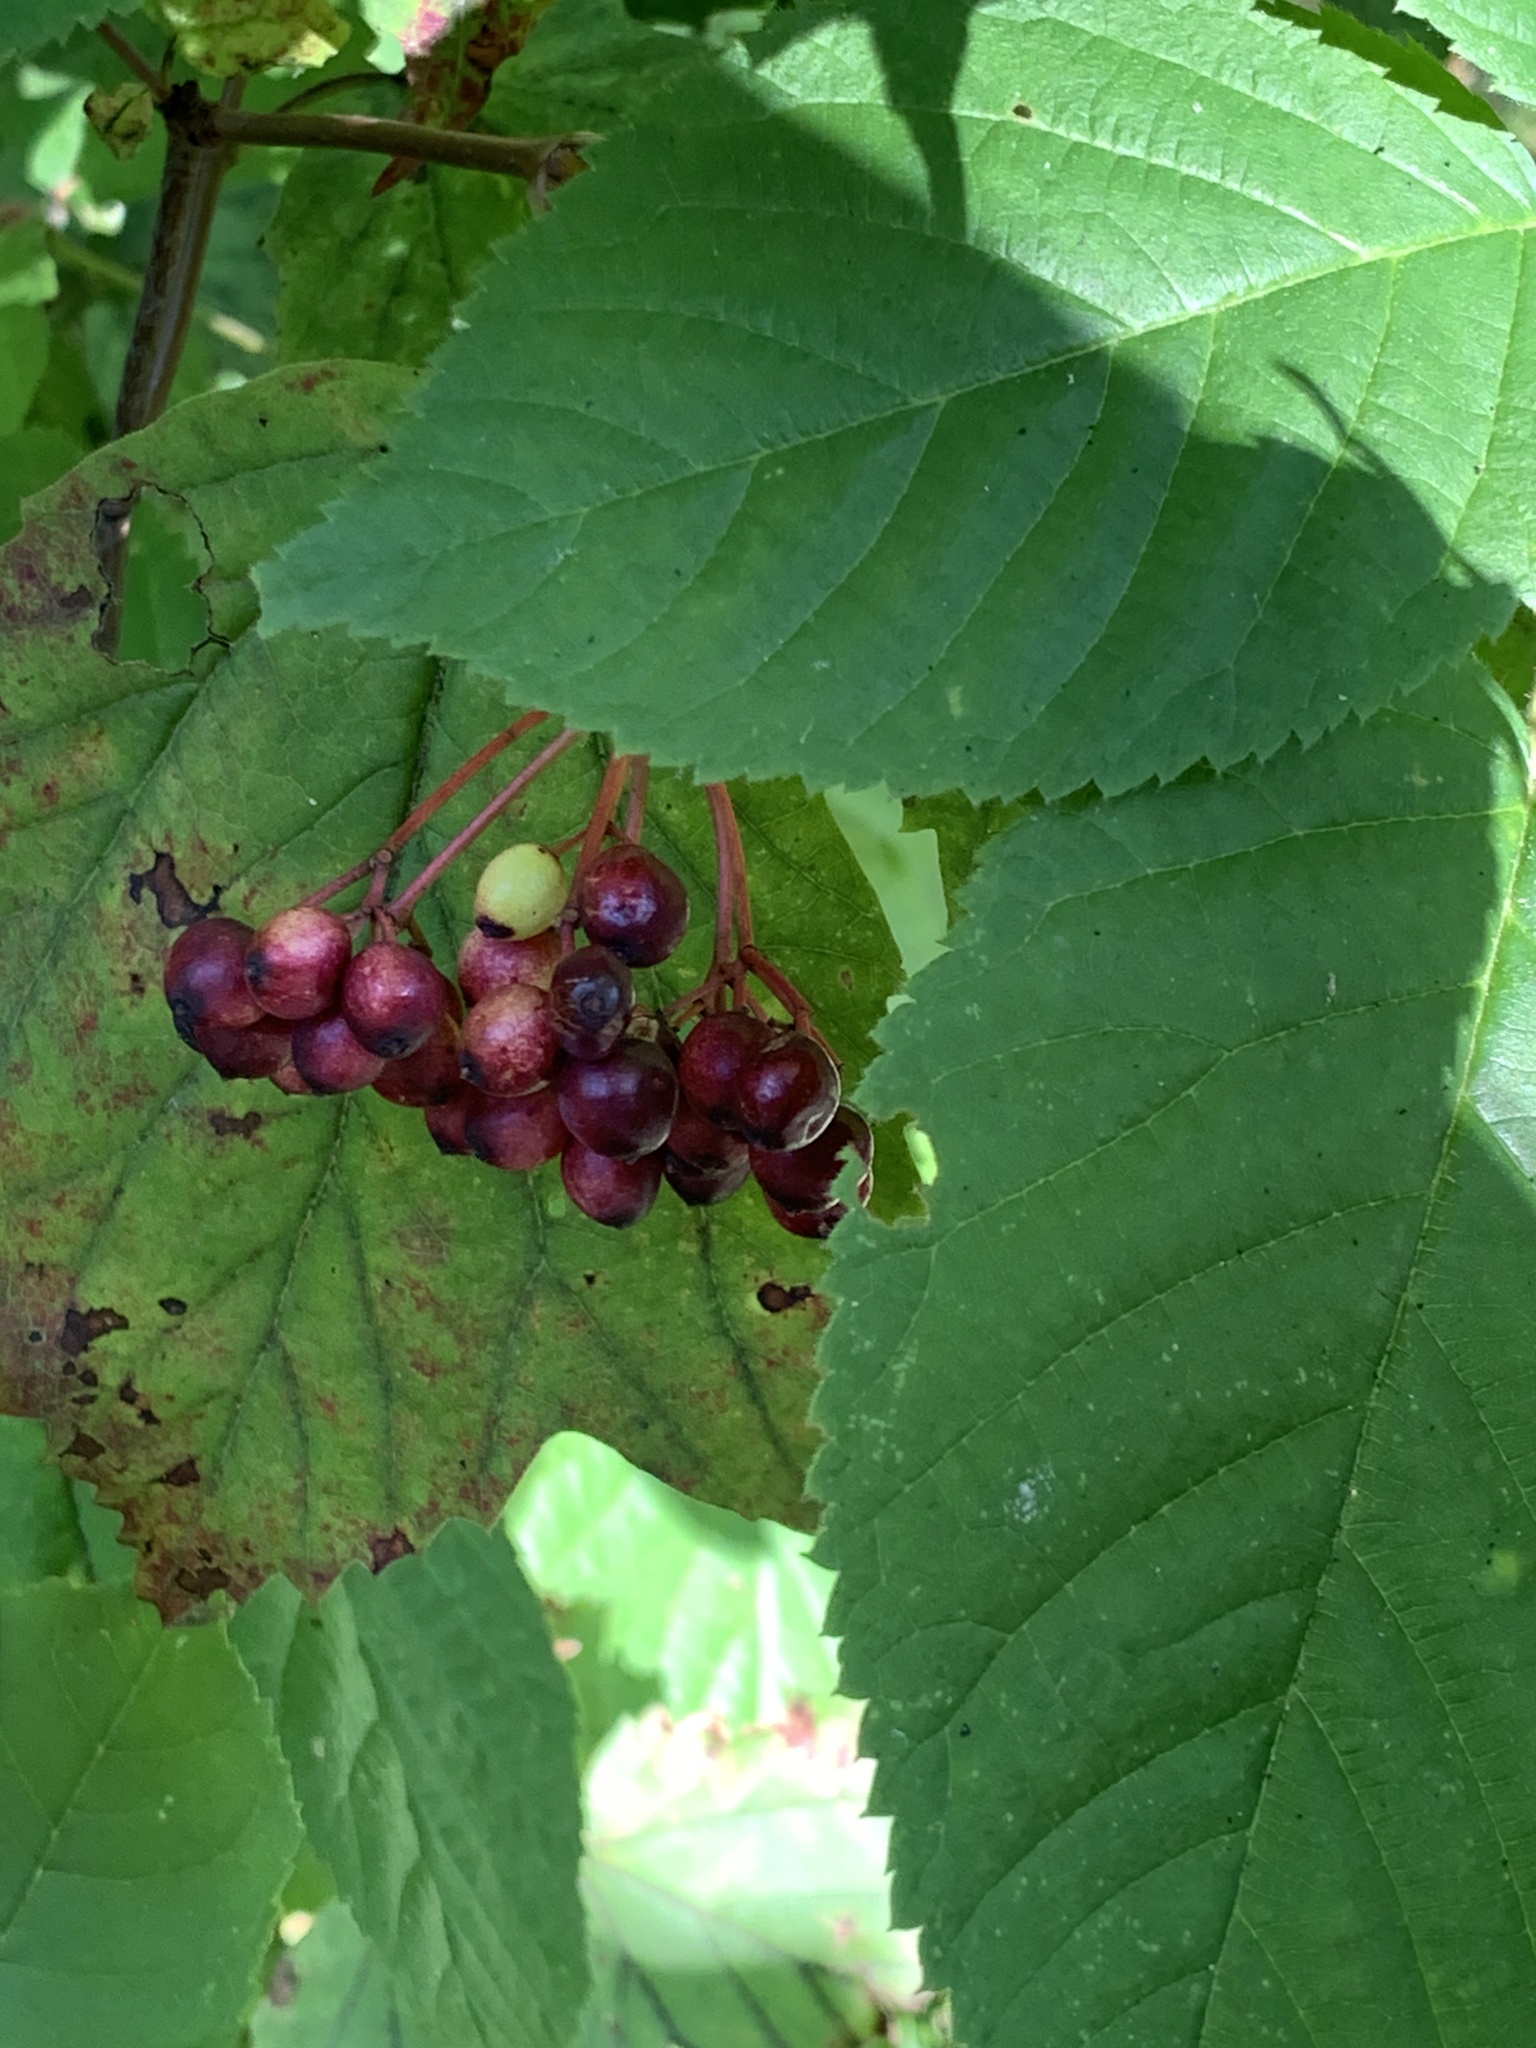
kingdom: Plantae
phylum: Tracheophyta
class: Magnoliopsida
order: Apiales
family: Araliaceae
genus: Aralia
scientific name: Aralia racemosa
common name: American-spikenard
